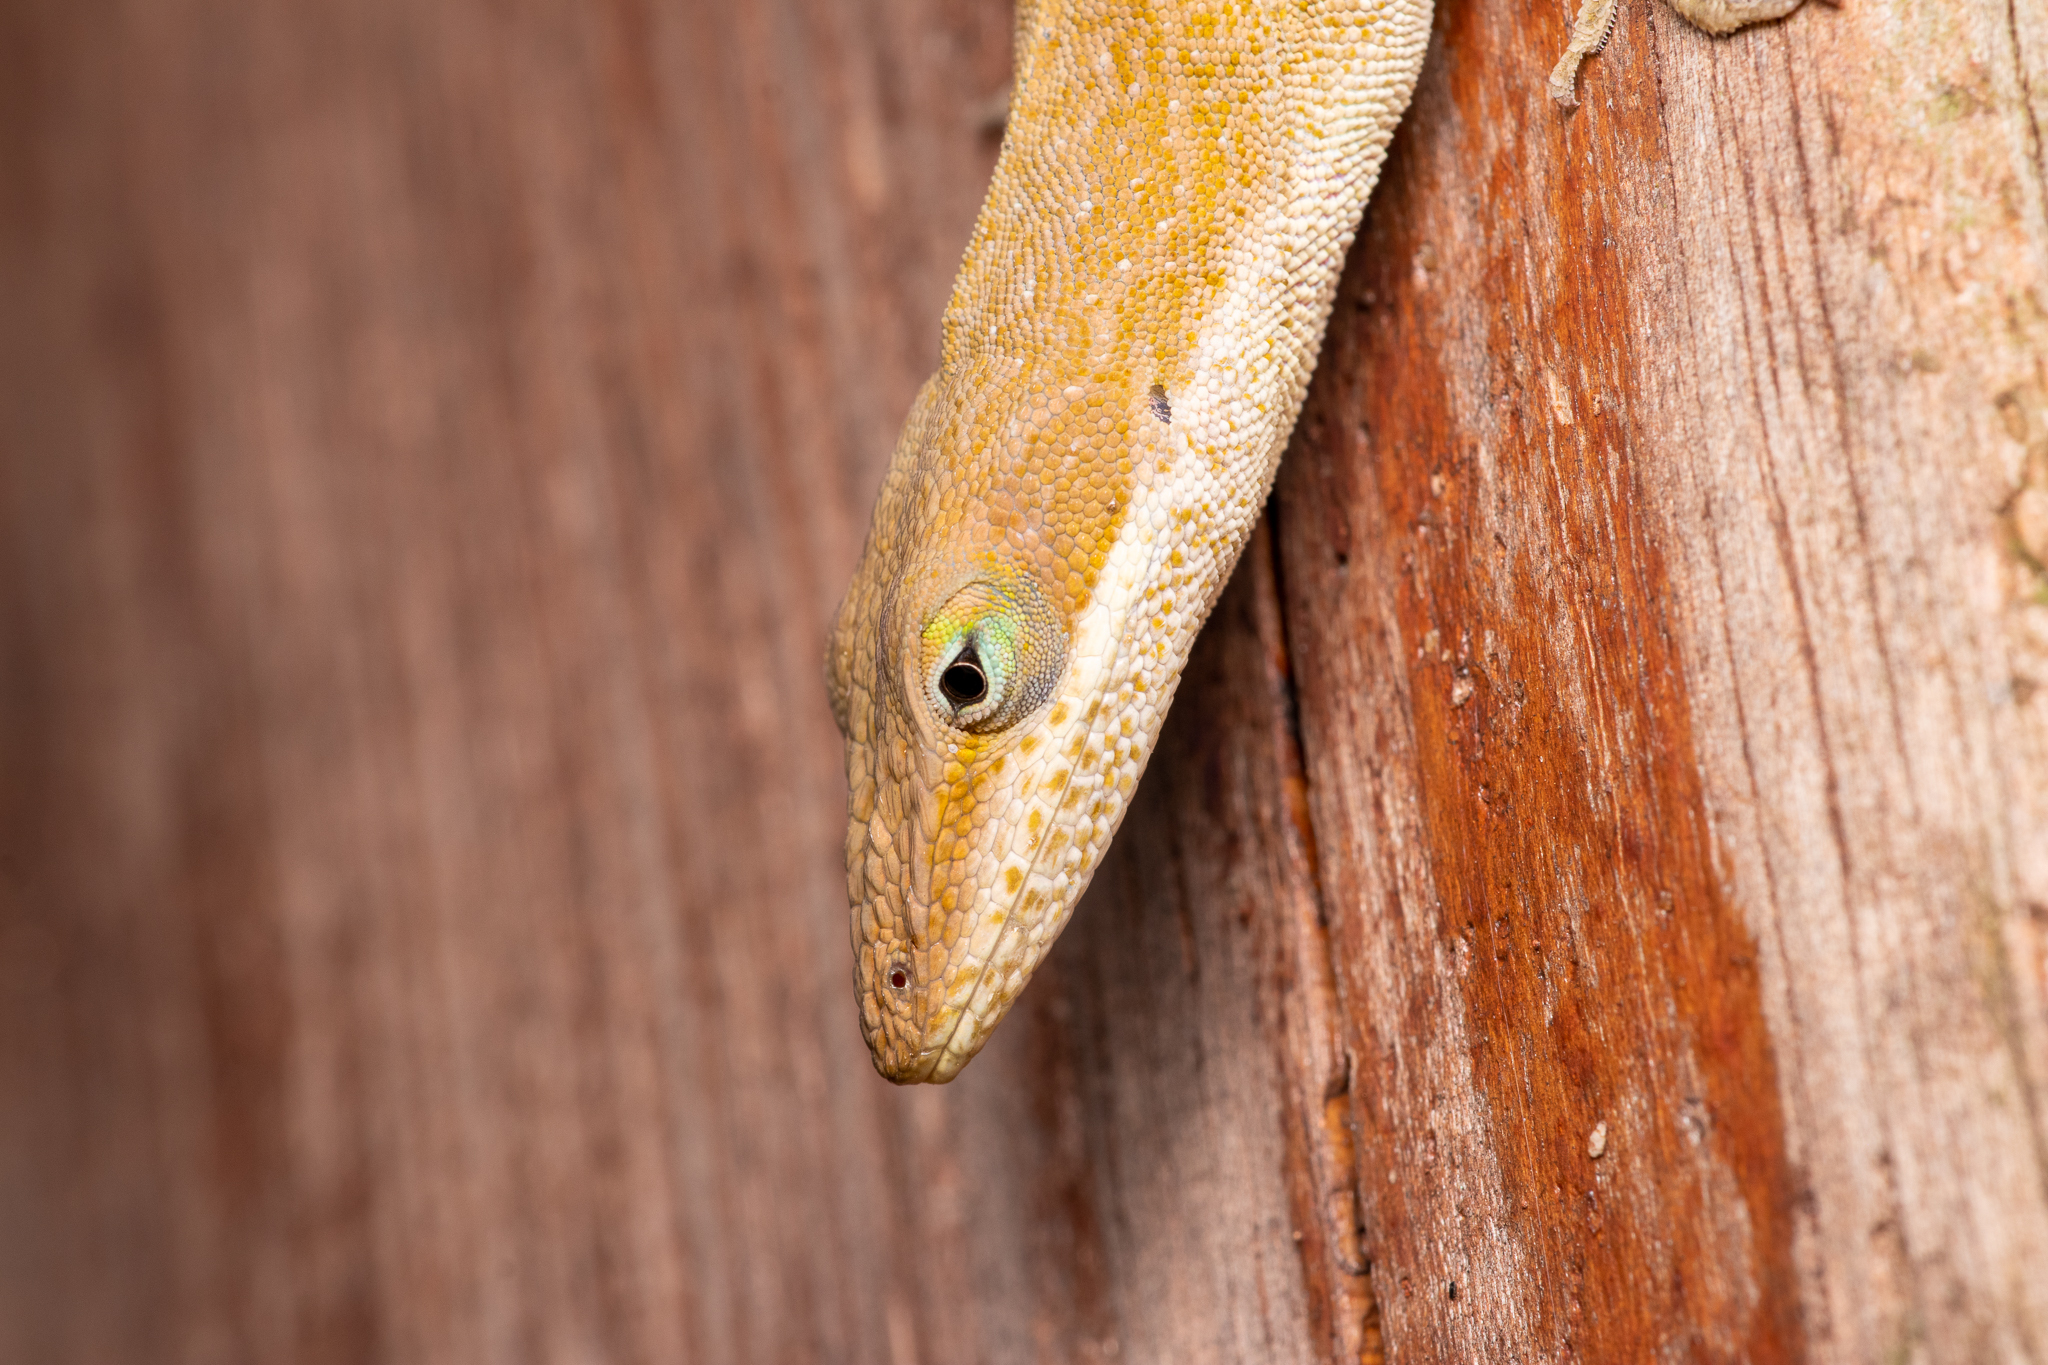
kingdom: Animalia
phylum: Chordata
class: Squamata
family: Dactyloidae
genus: Anolis
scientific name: Anolis carolinensis
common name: Green anole
